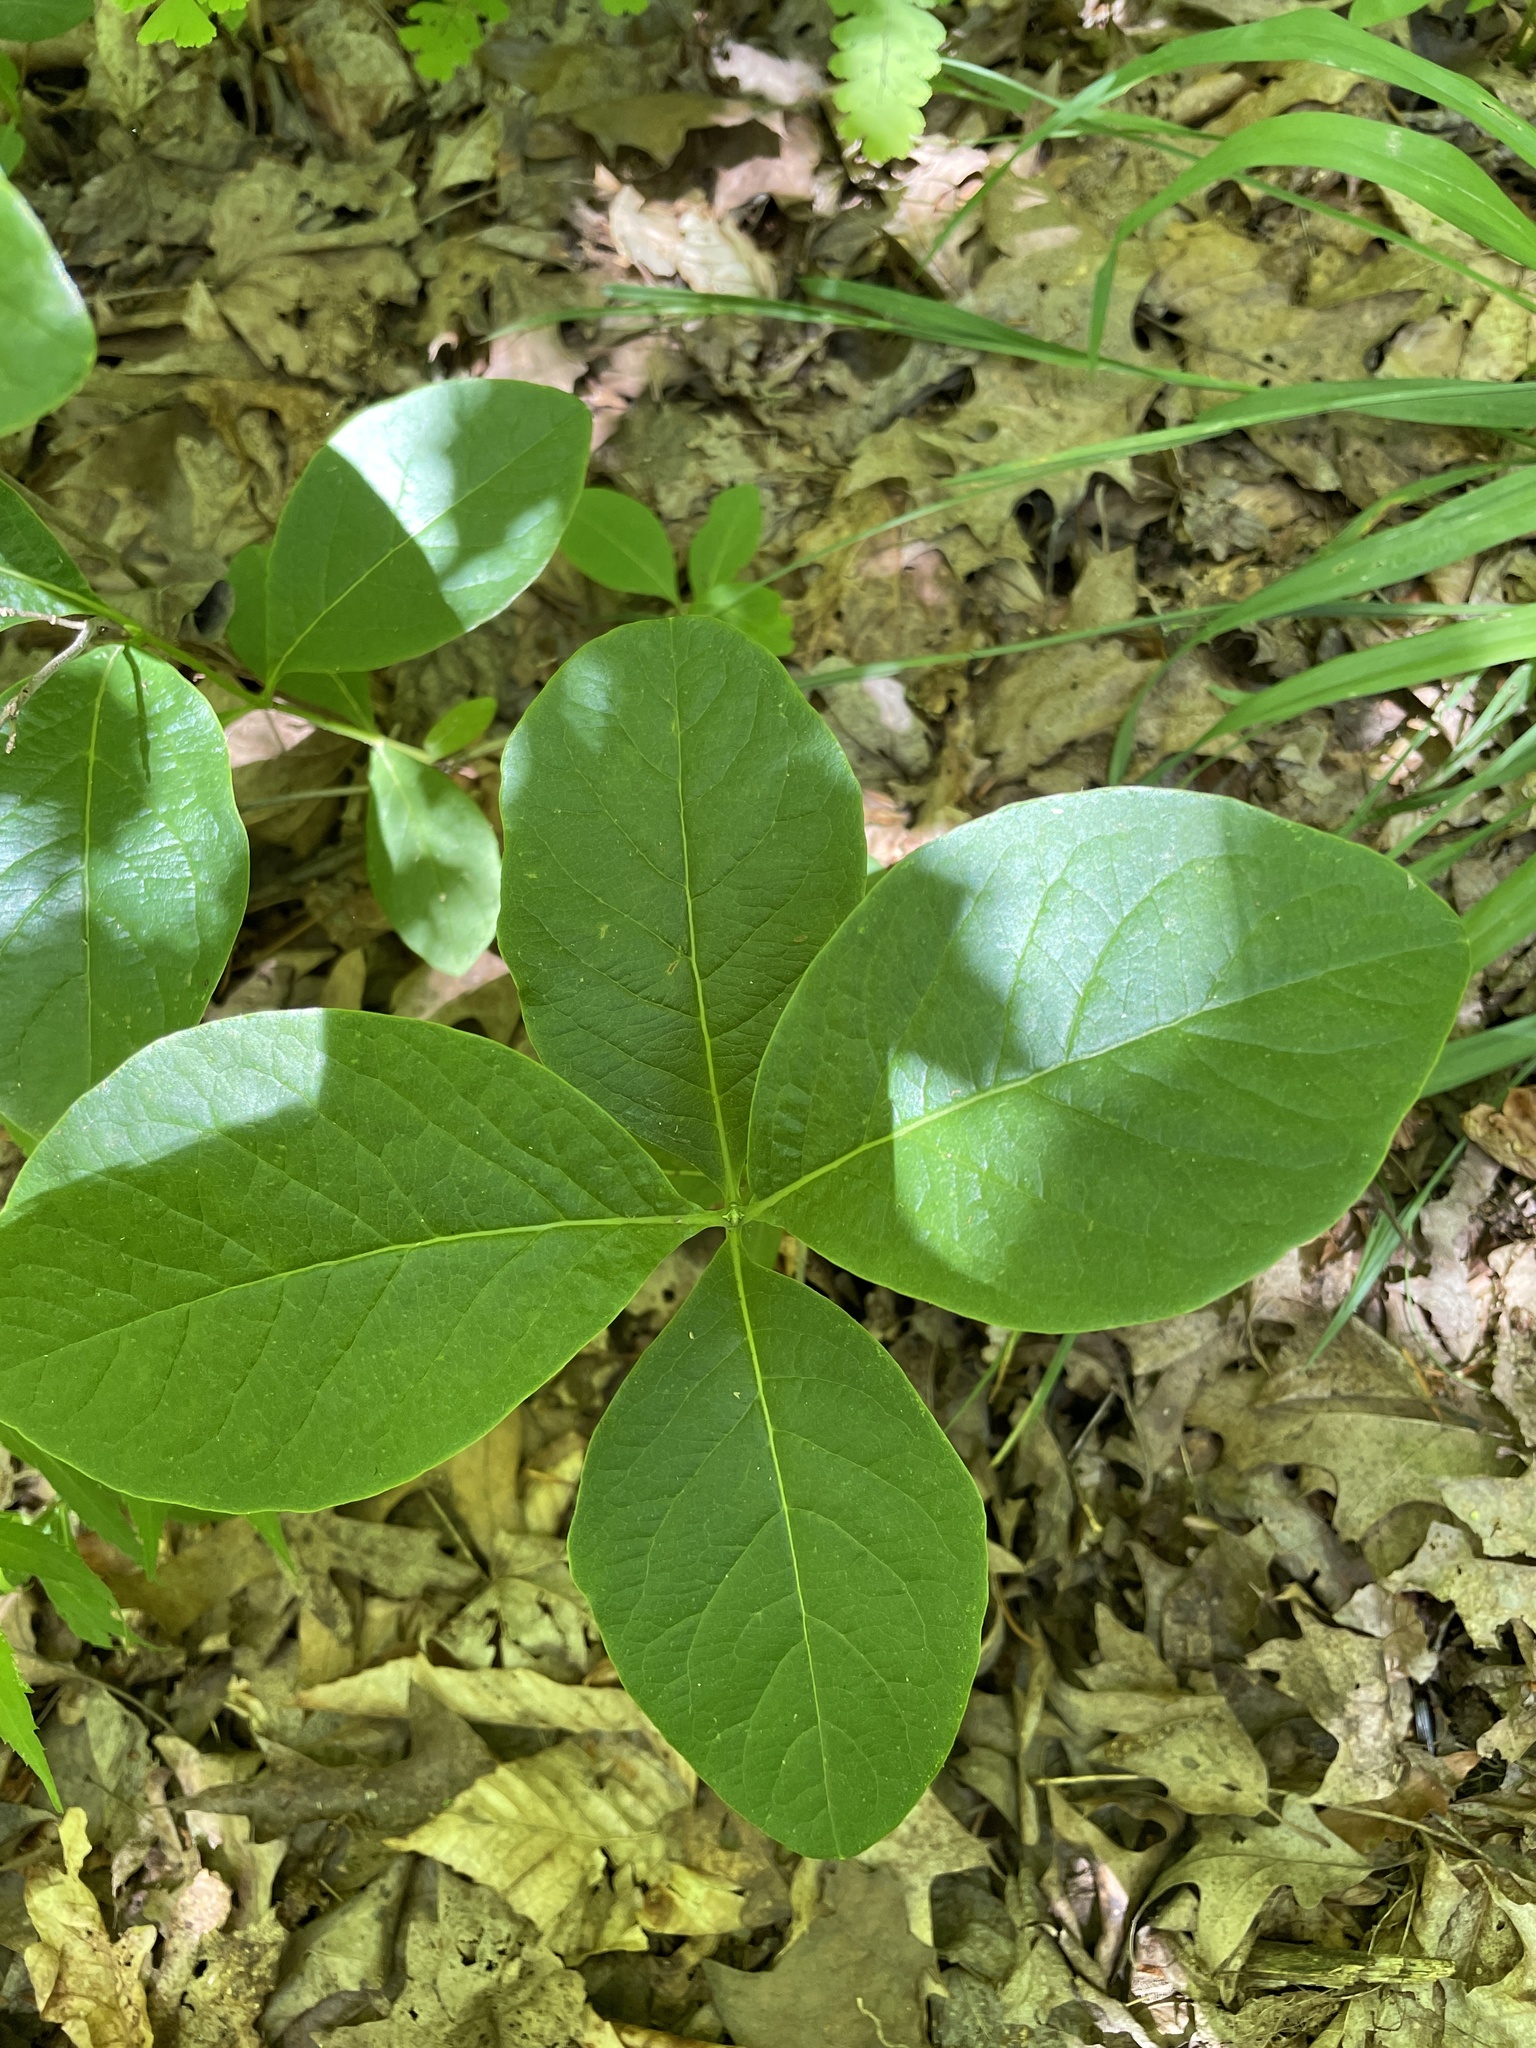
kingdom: Plantae
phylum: Tracheophyta
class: Magnoliopsida
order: Dipsacales
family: Caprifoliaceae
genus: Lonicera
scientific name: Lonicera dioica
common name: Limber honeysuckle
